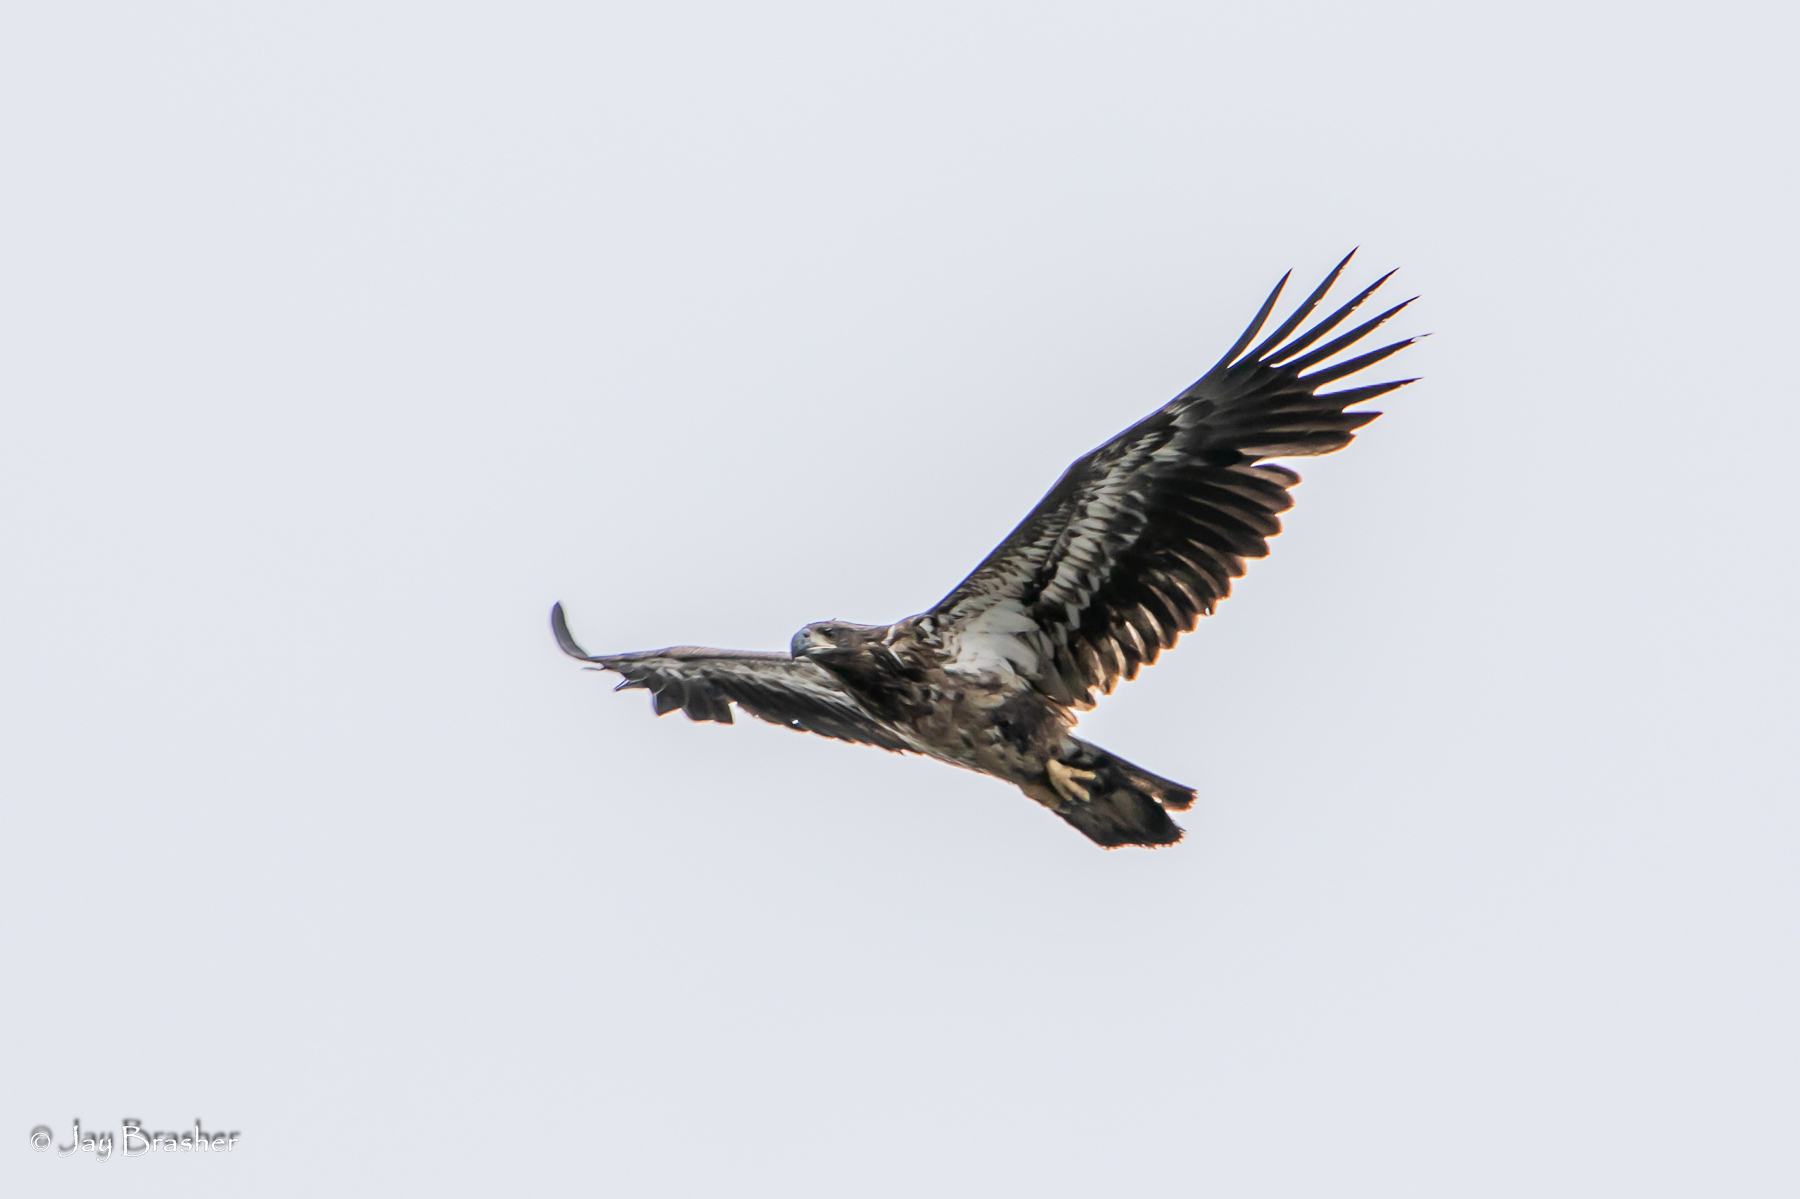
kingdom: Animalia
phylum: Chordata
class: Aves
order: Accipitriformes
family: Accipitridae
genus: Haliaeetus
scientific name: Haliaeetus leucocephalus
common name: Bald eagle
